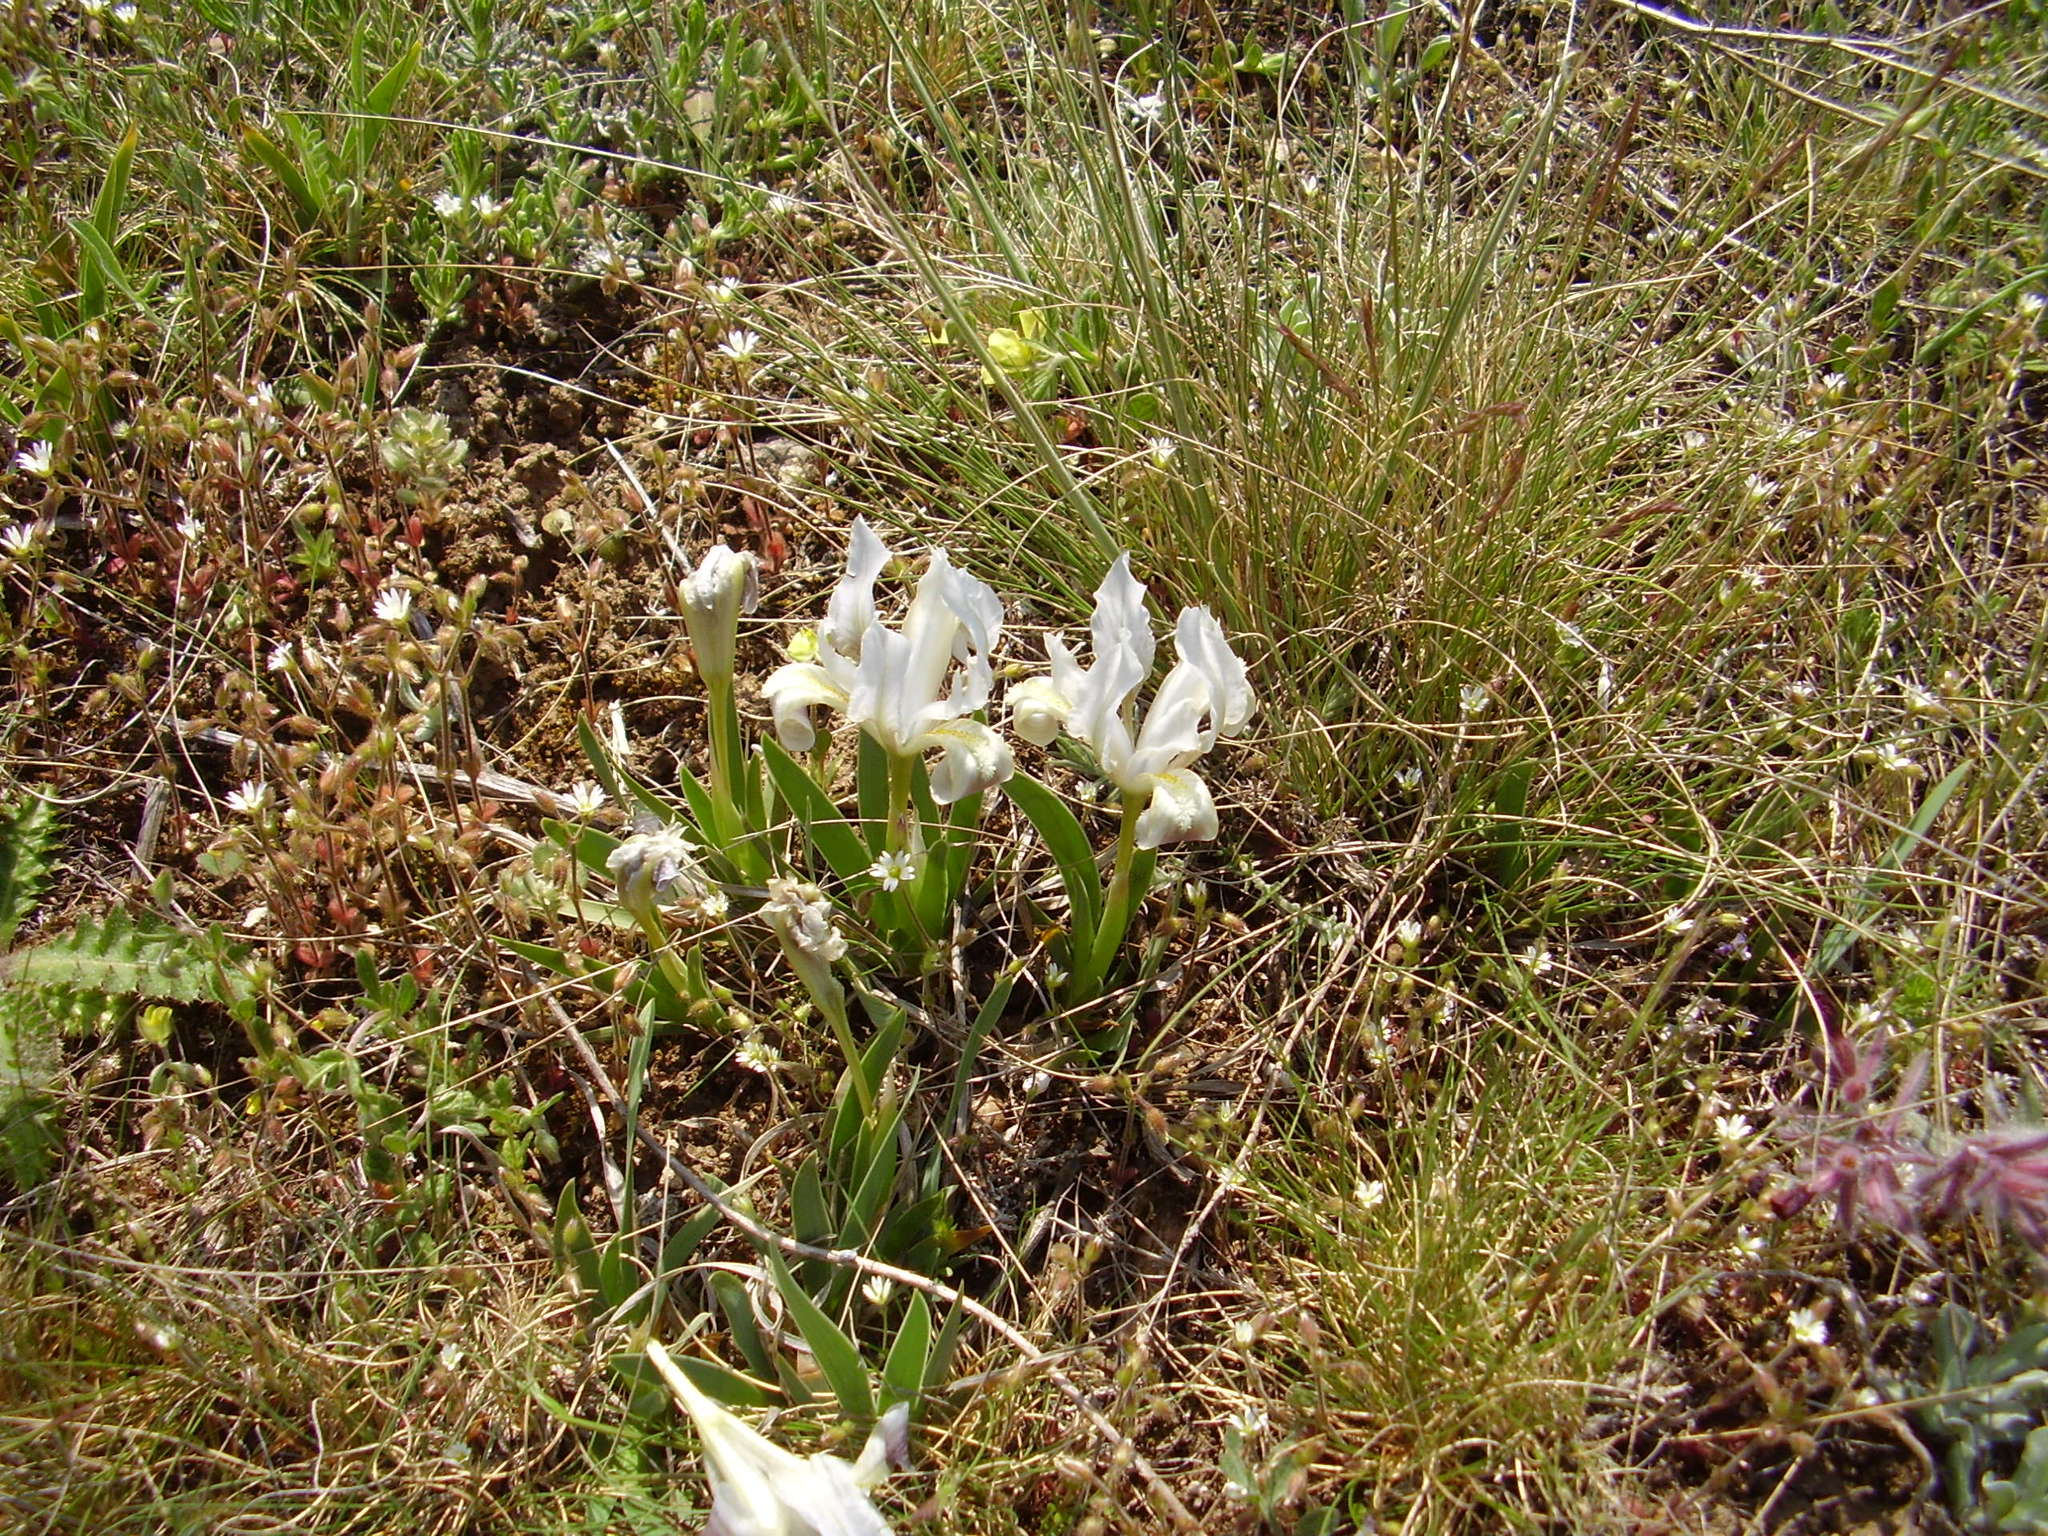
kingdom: Plantae
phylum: Tracheophyta
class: Liliopsida
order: Asparagales
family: Iridaceae
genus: Iris
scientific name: Iris pumila
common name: Dwarf iris
